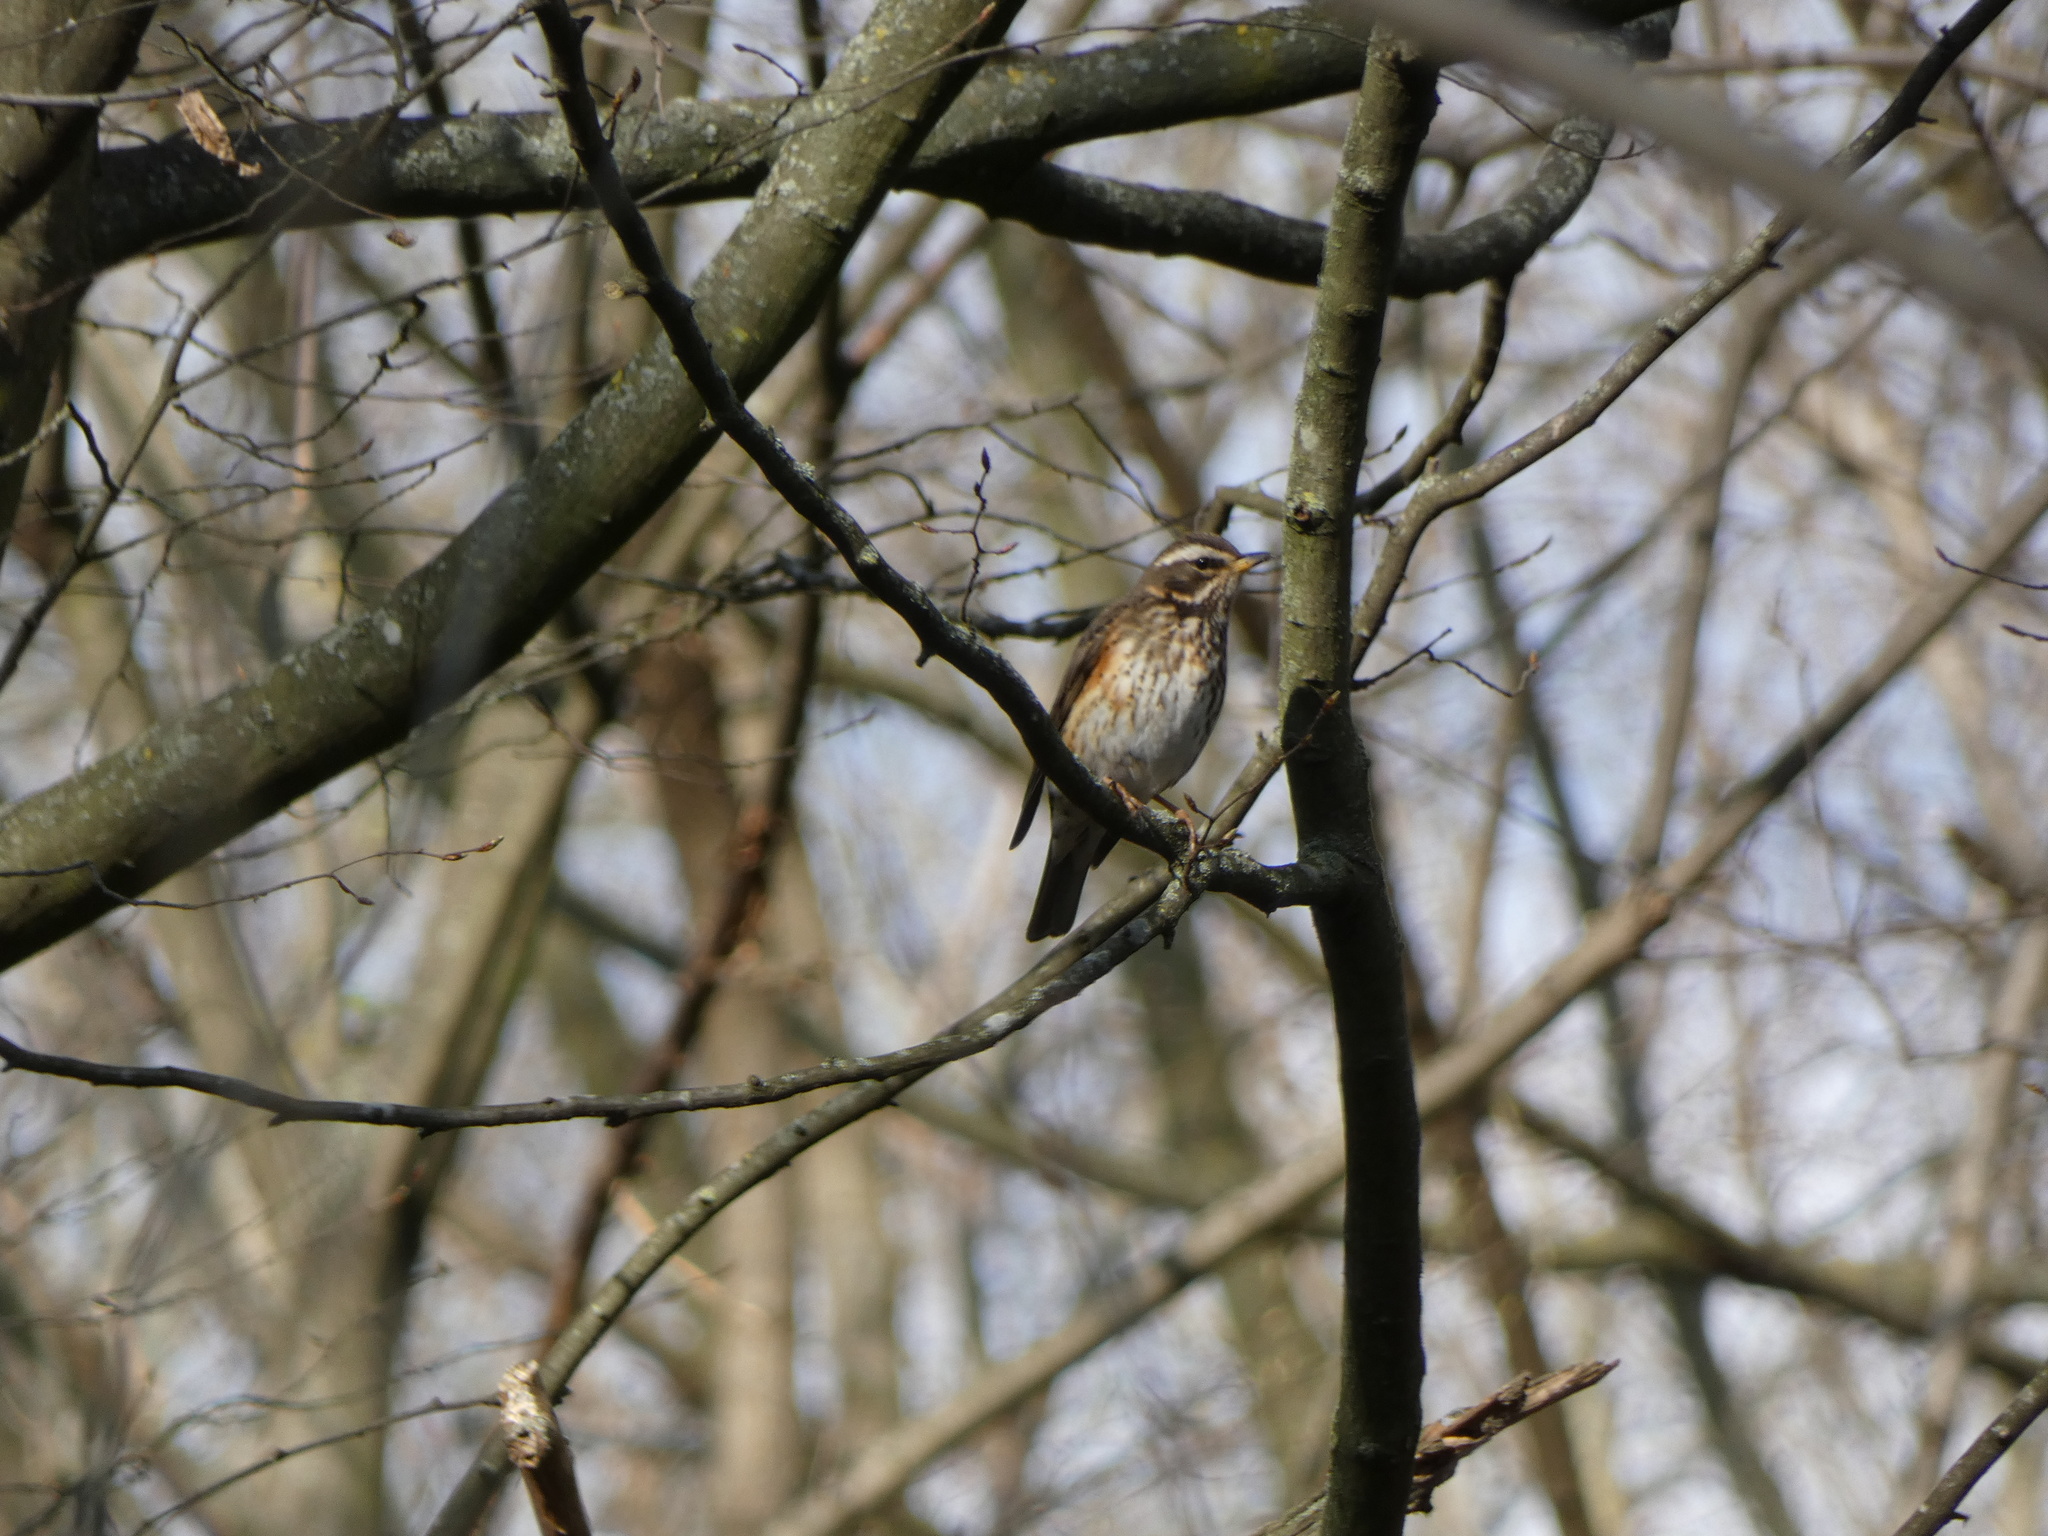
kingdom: Animalia
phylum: Chordata
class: Aves
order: Passeriformes
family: Turdidae
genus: Turdus
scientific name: Turdus iliacus
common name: Redwing
